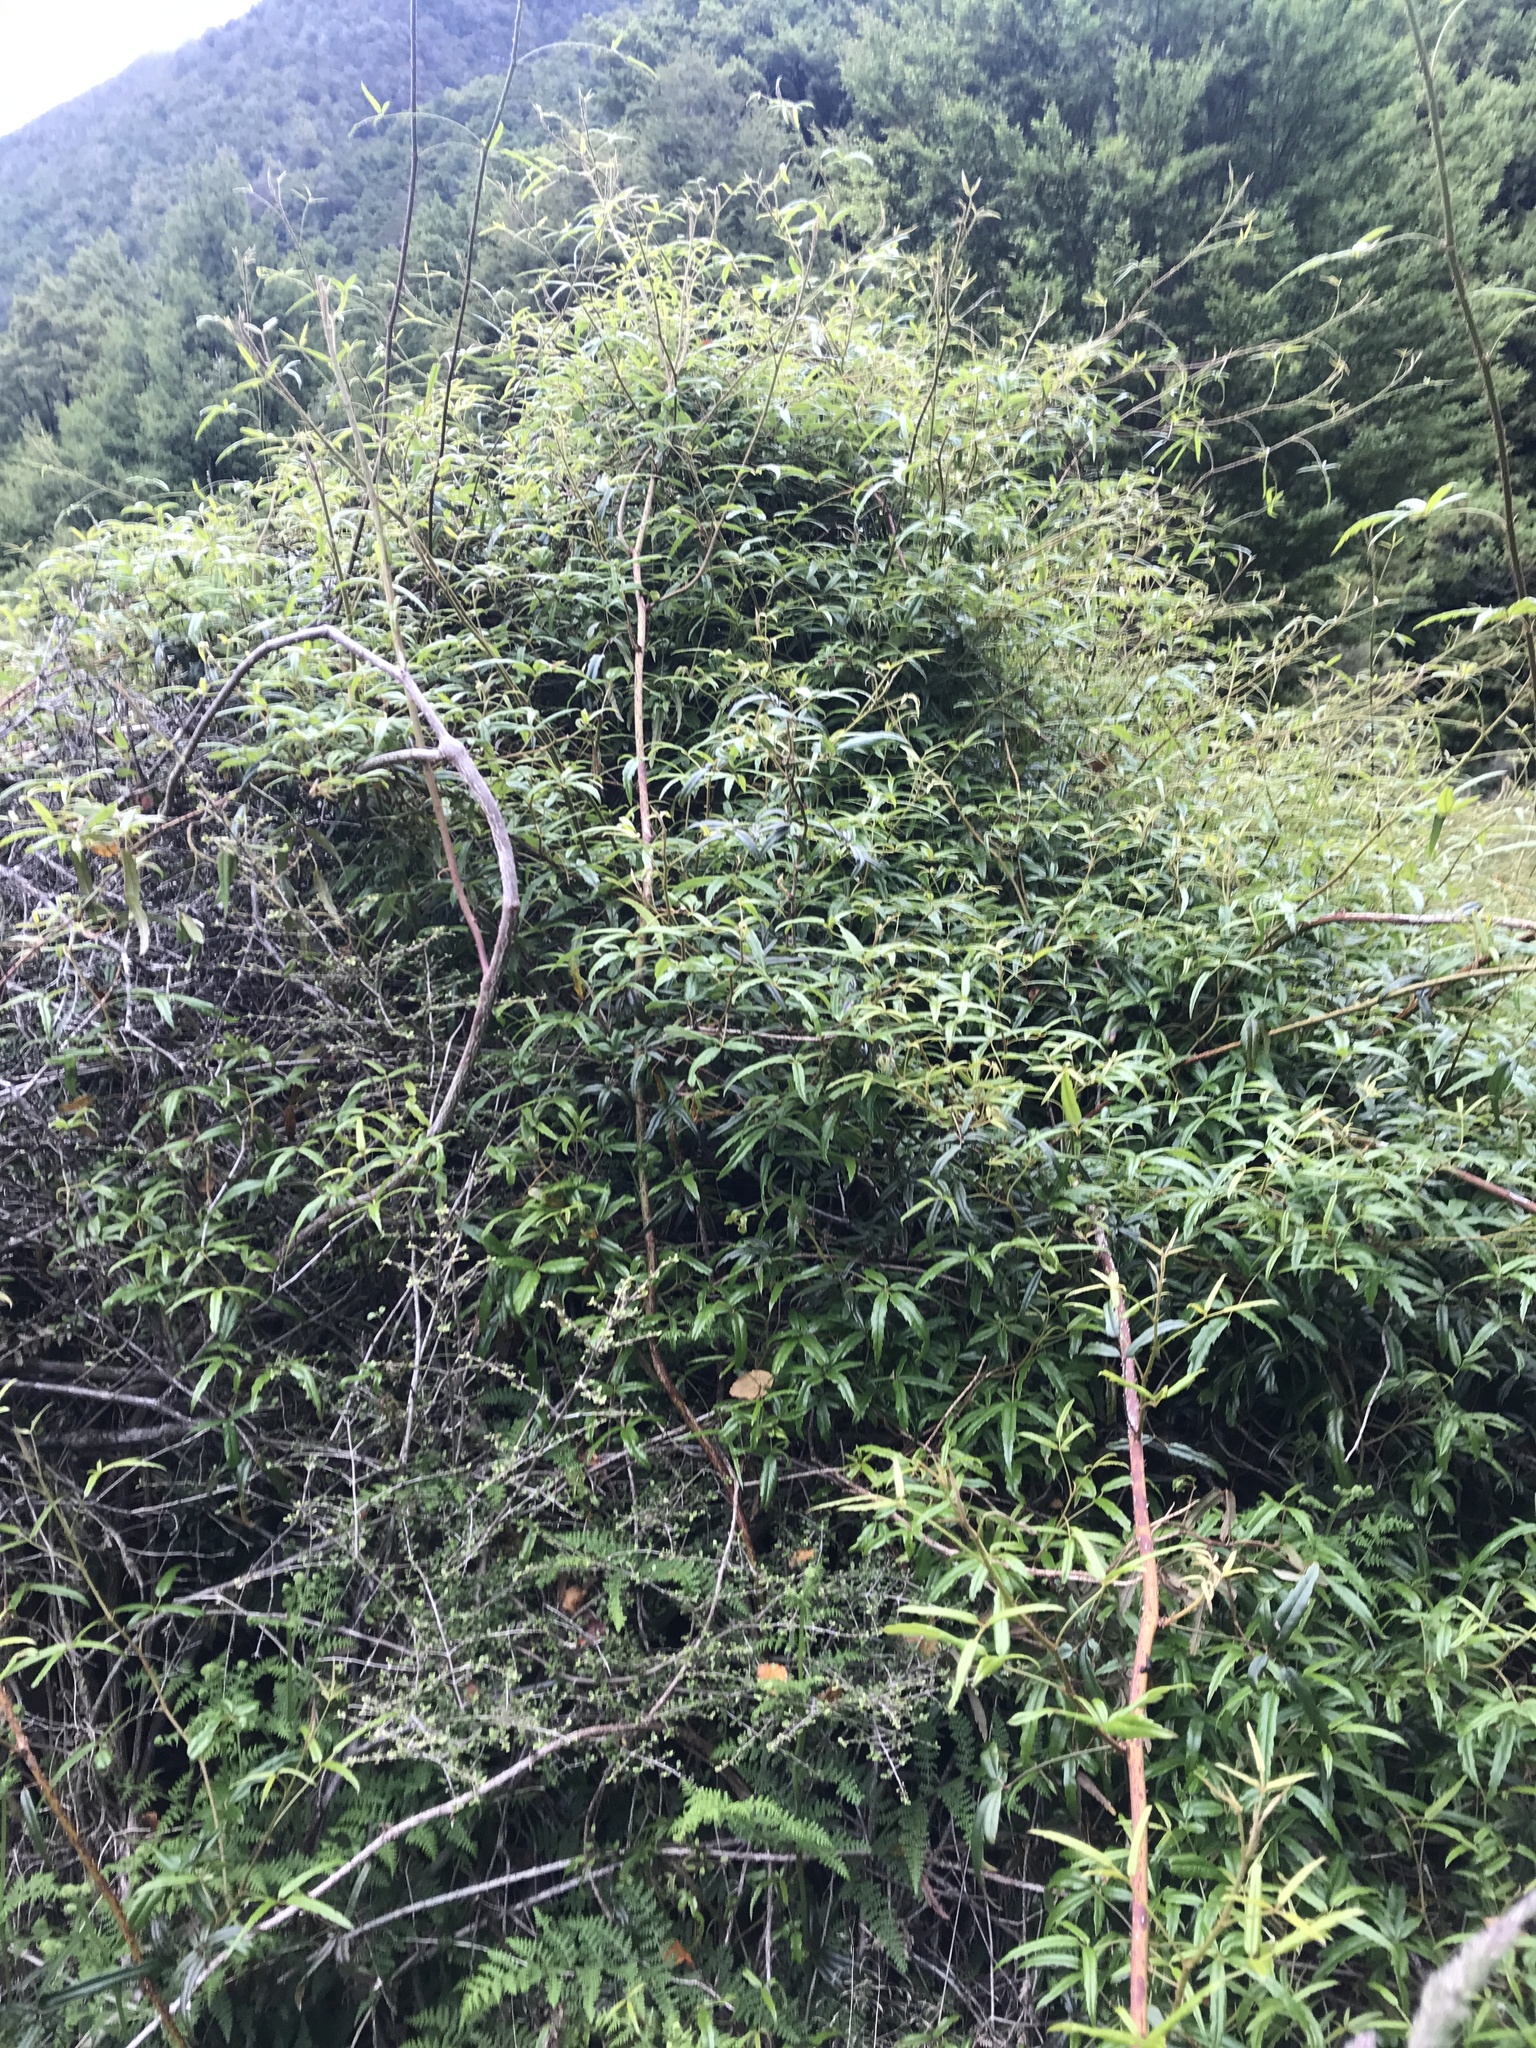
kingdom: Plantae
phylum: Tracheophyta
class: Magnoliopsida
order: Rosales
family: Rosaceae
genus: Rubus
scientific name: Rubus schmidelioides
